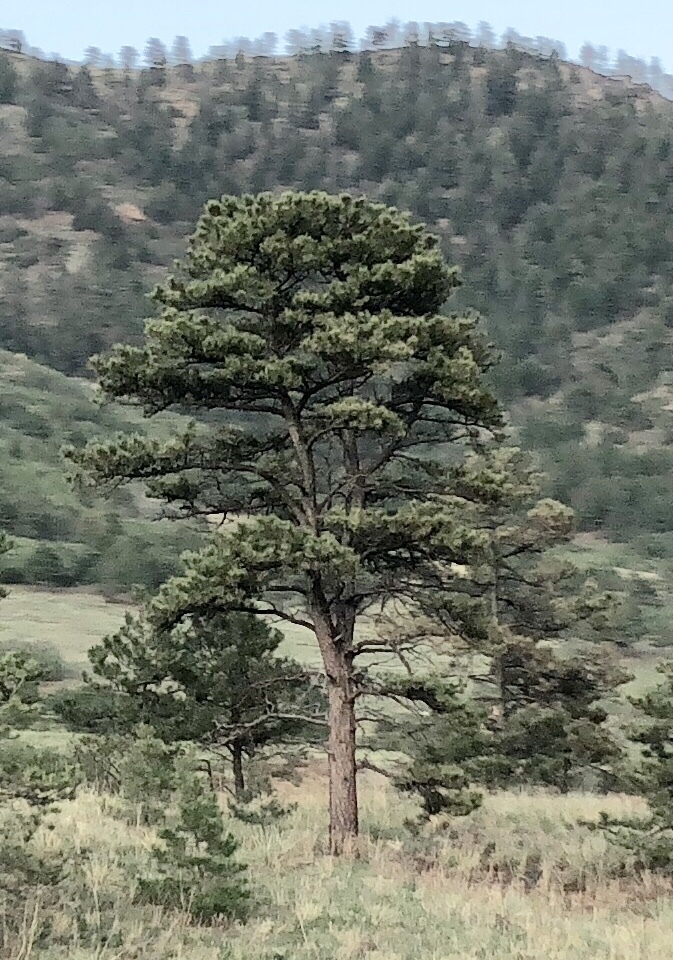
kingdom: Plantae
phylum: Tracheophyta
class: Pinopsida
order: Pinales
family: Pinaceae
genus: Pinus
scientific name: Pinus ponderosa
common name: Western yellow-pine
